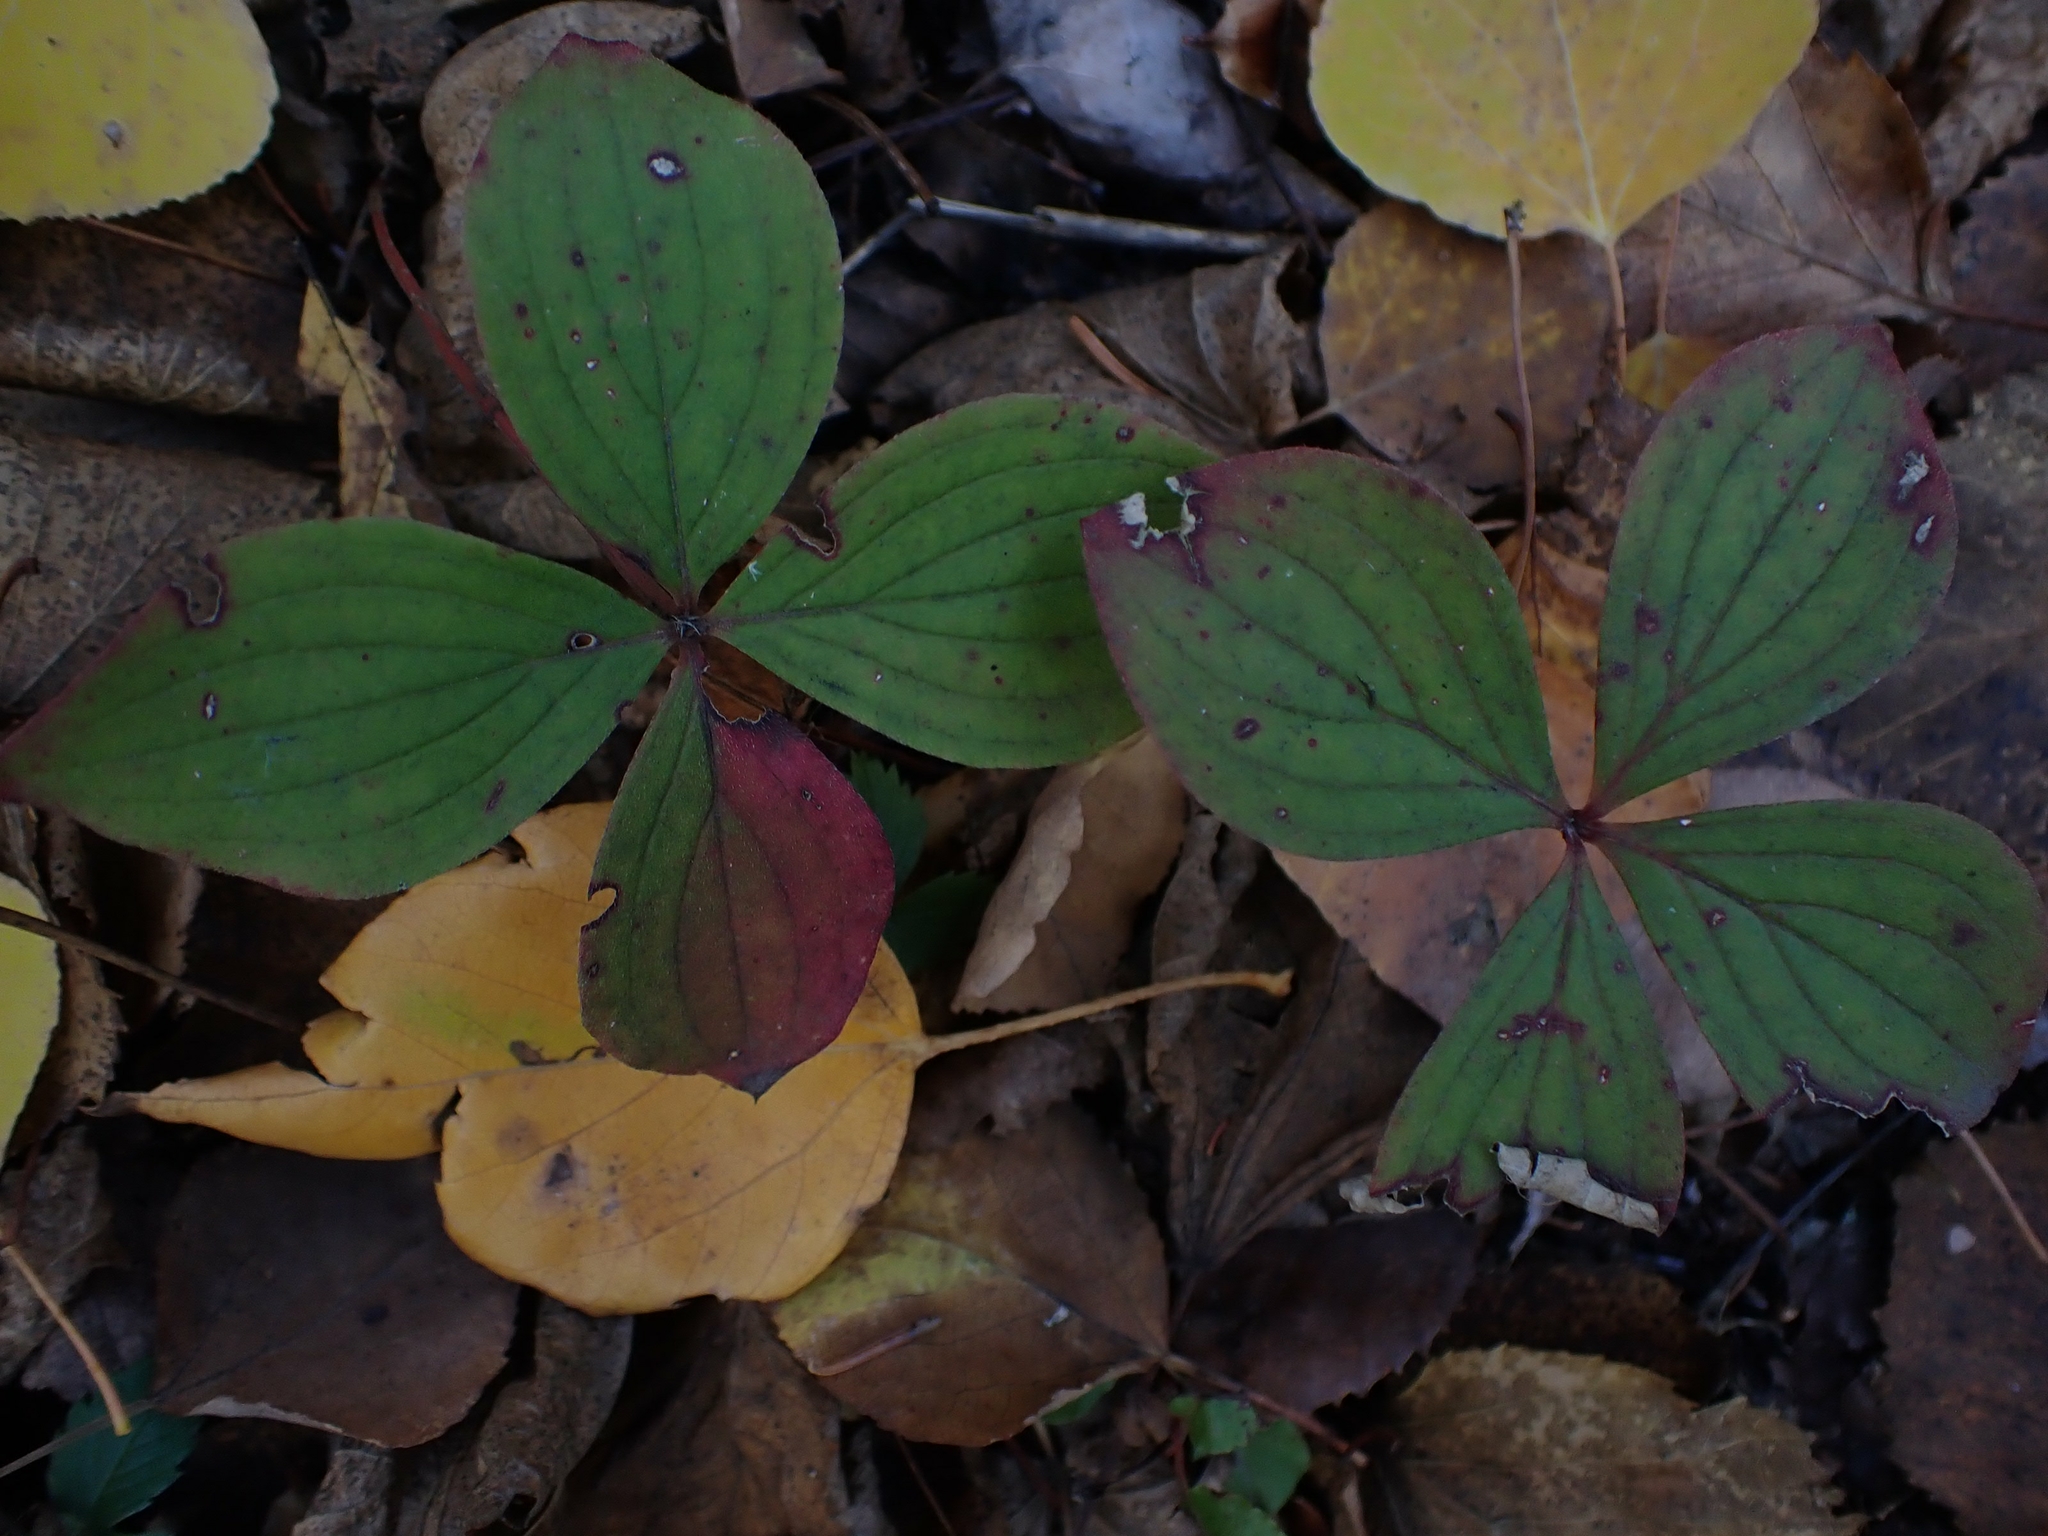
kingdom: Plantae
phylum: Tracheophyta
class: Magnoliopsida
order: Cornales
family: Cornaceae
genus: Cornus
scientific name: Cornus canadensis
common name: Creeping dogwood
